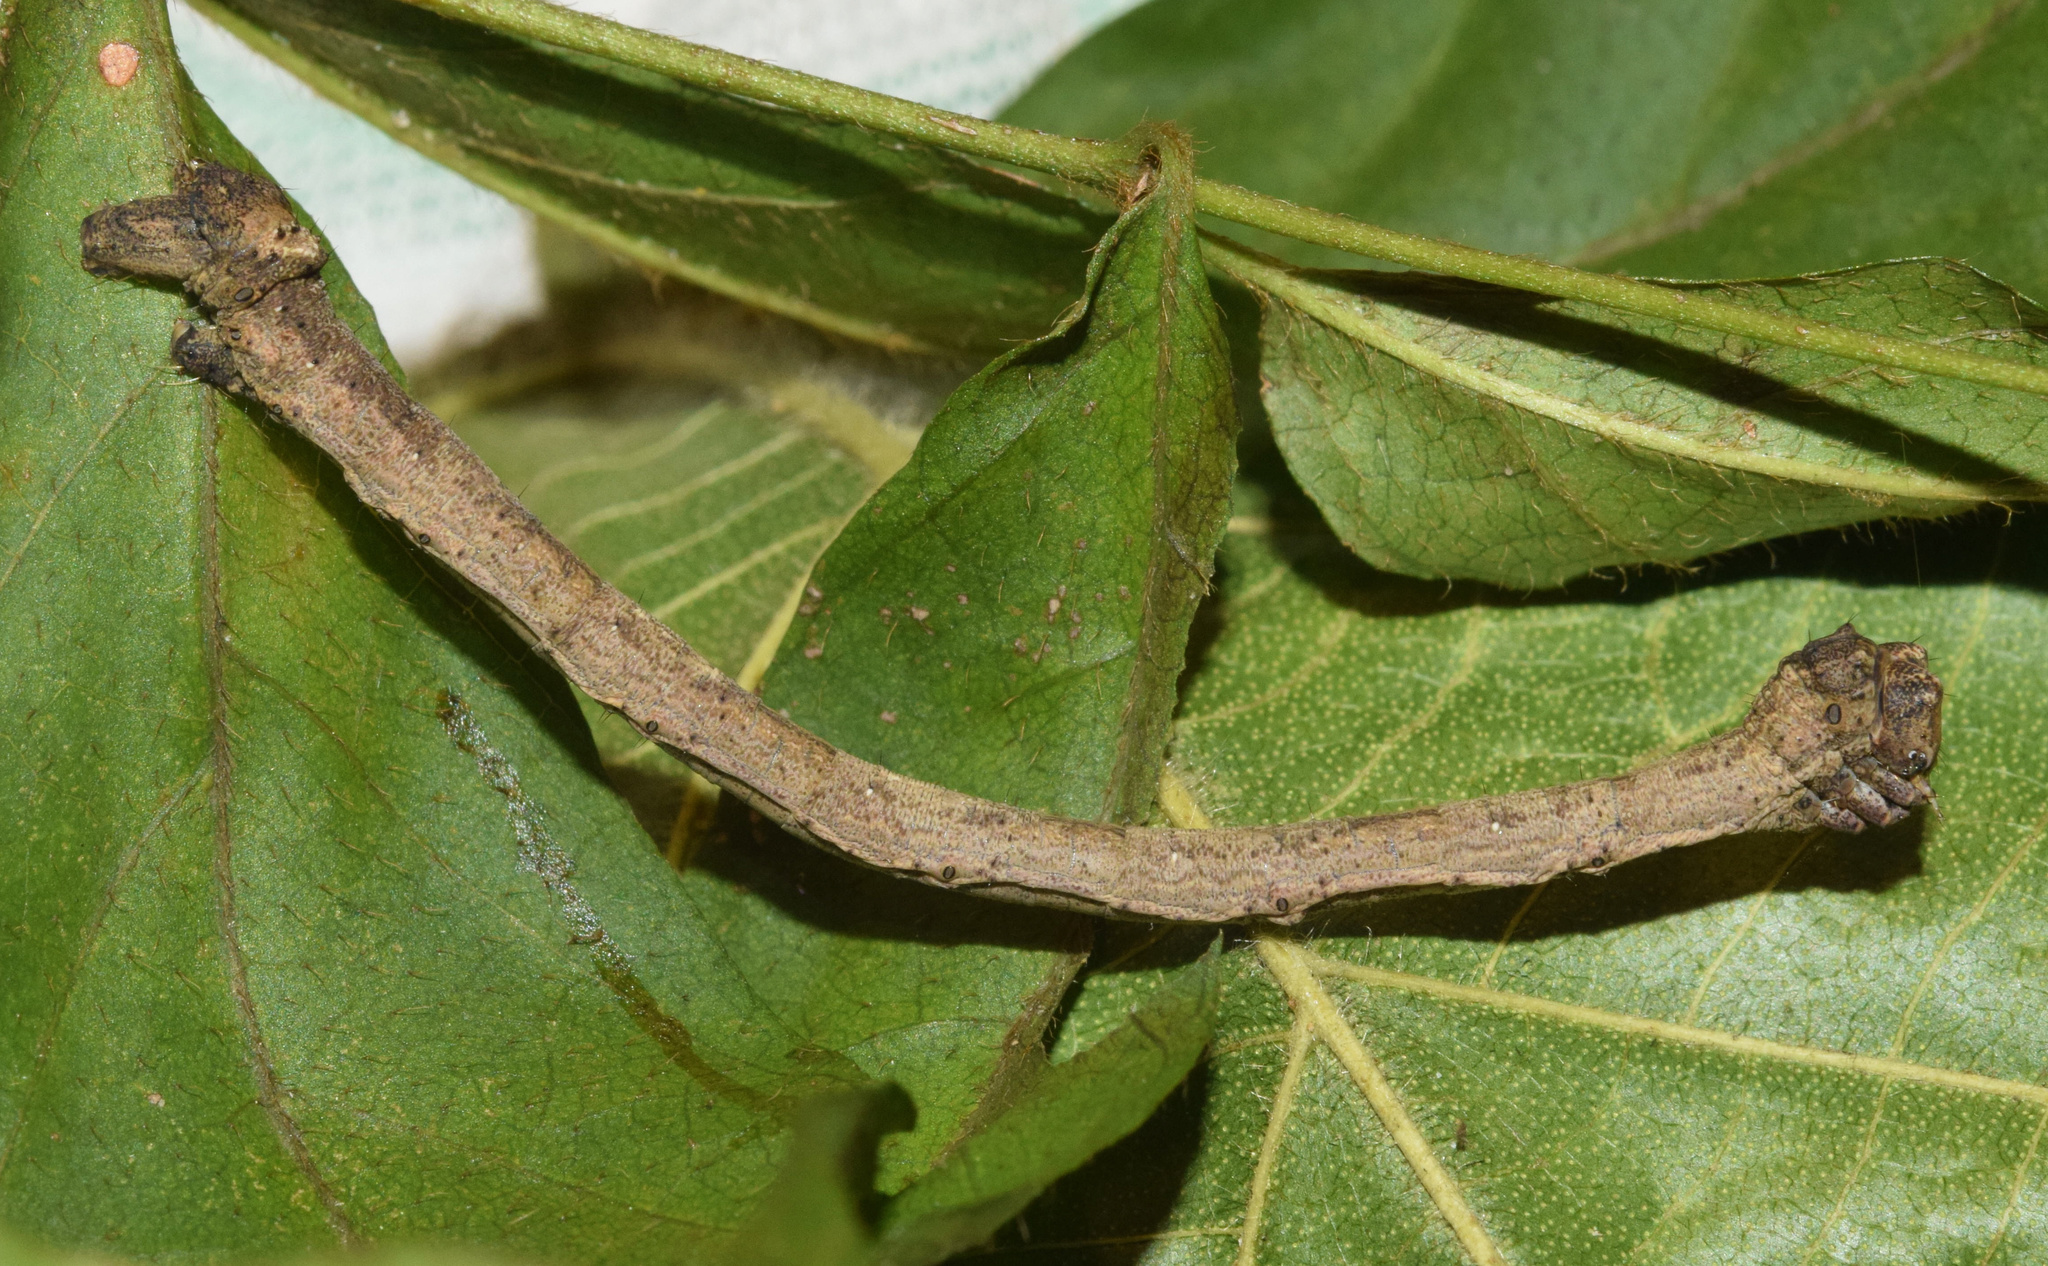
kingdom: Animalia
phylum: Arthropoda
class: Insecta
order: Lepidoptera
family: Geometridae
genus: Plegapteryx
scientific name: Plegapteryx anomalus
